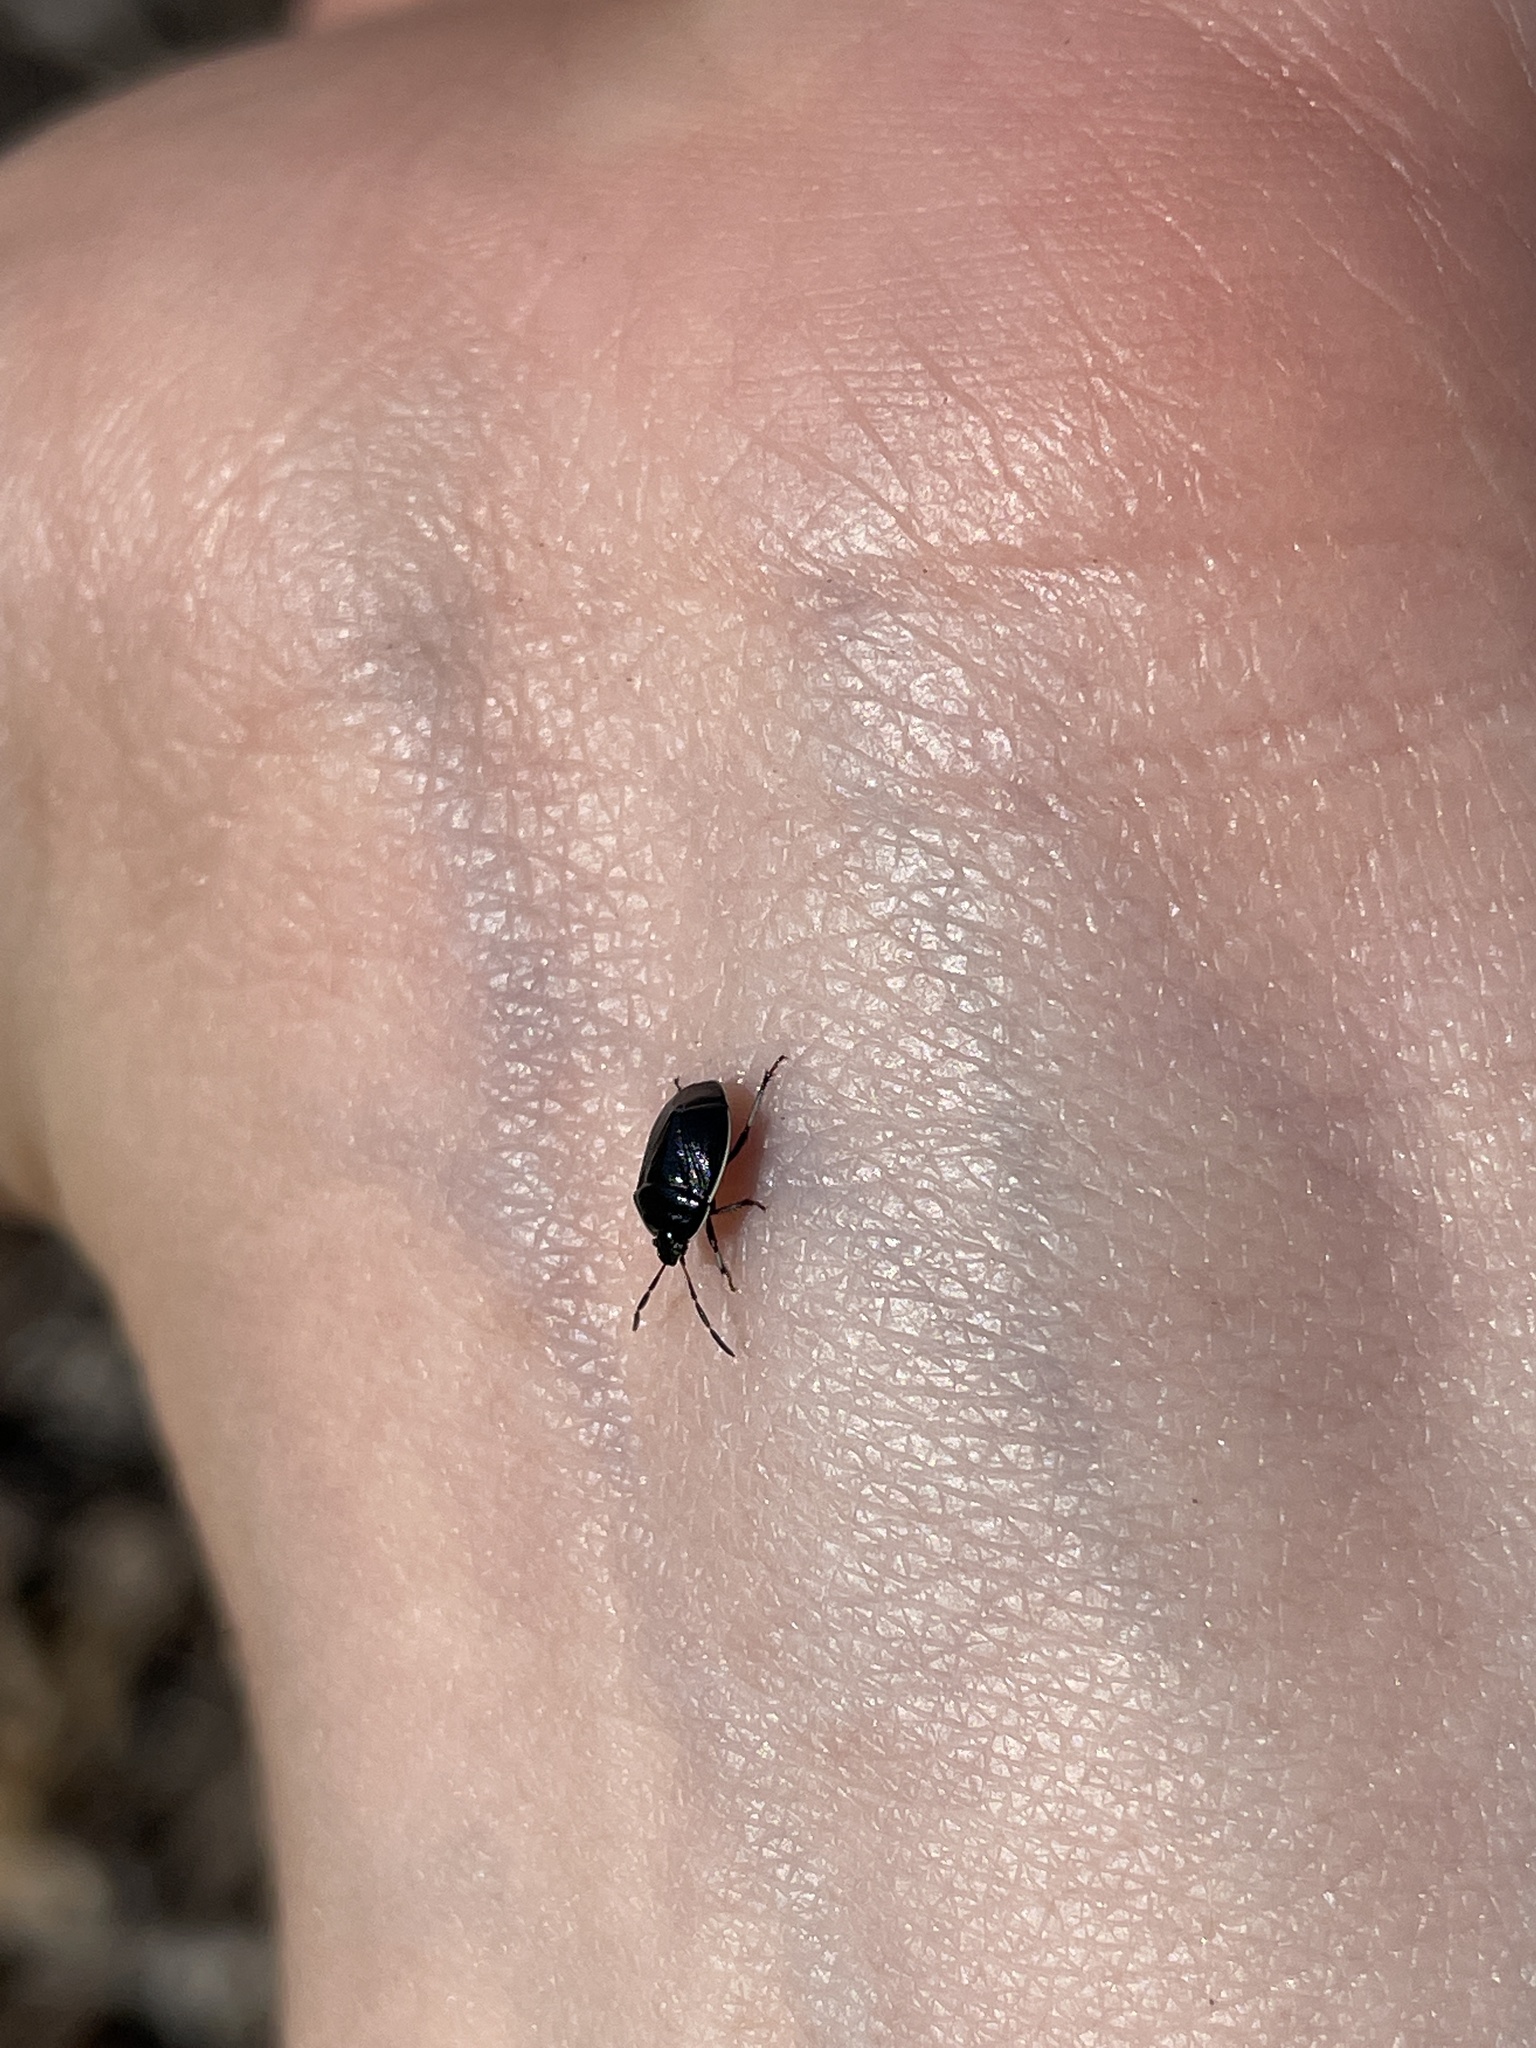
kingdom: Animalia
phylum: Arthropoda
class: Insecta
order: Hemiptera
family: Cydnidae
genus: Sehirus
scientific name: Sehirus cinctus
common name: White-margined burrower bug
